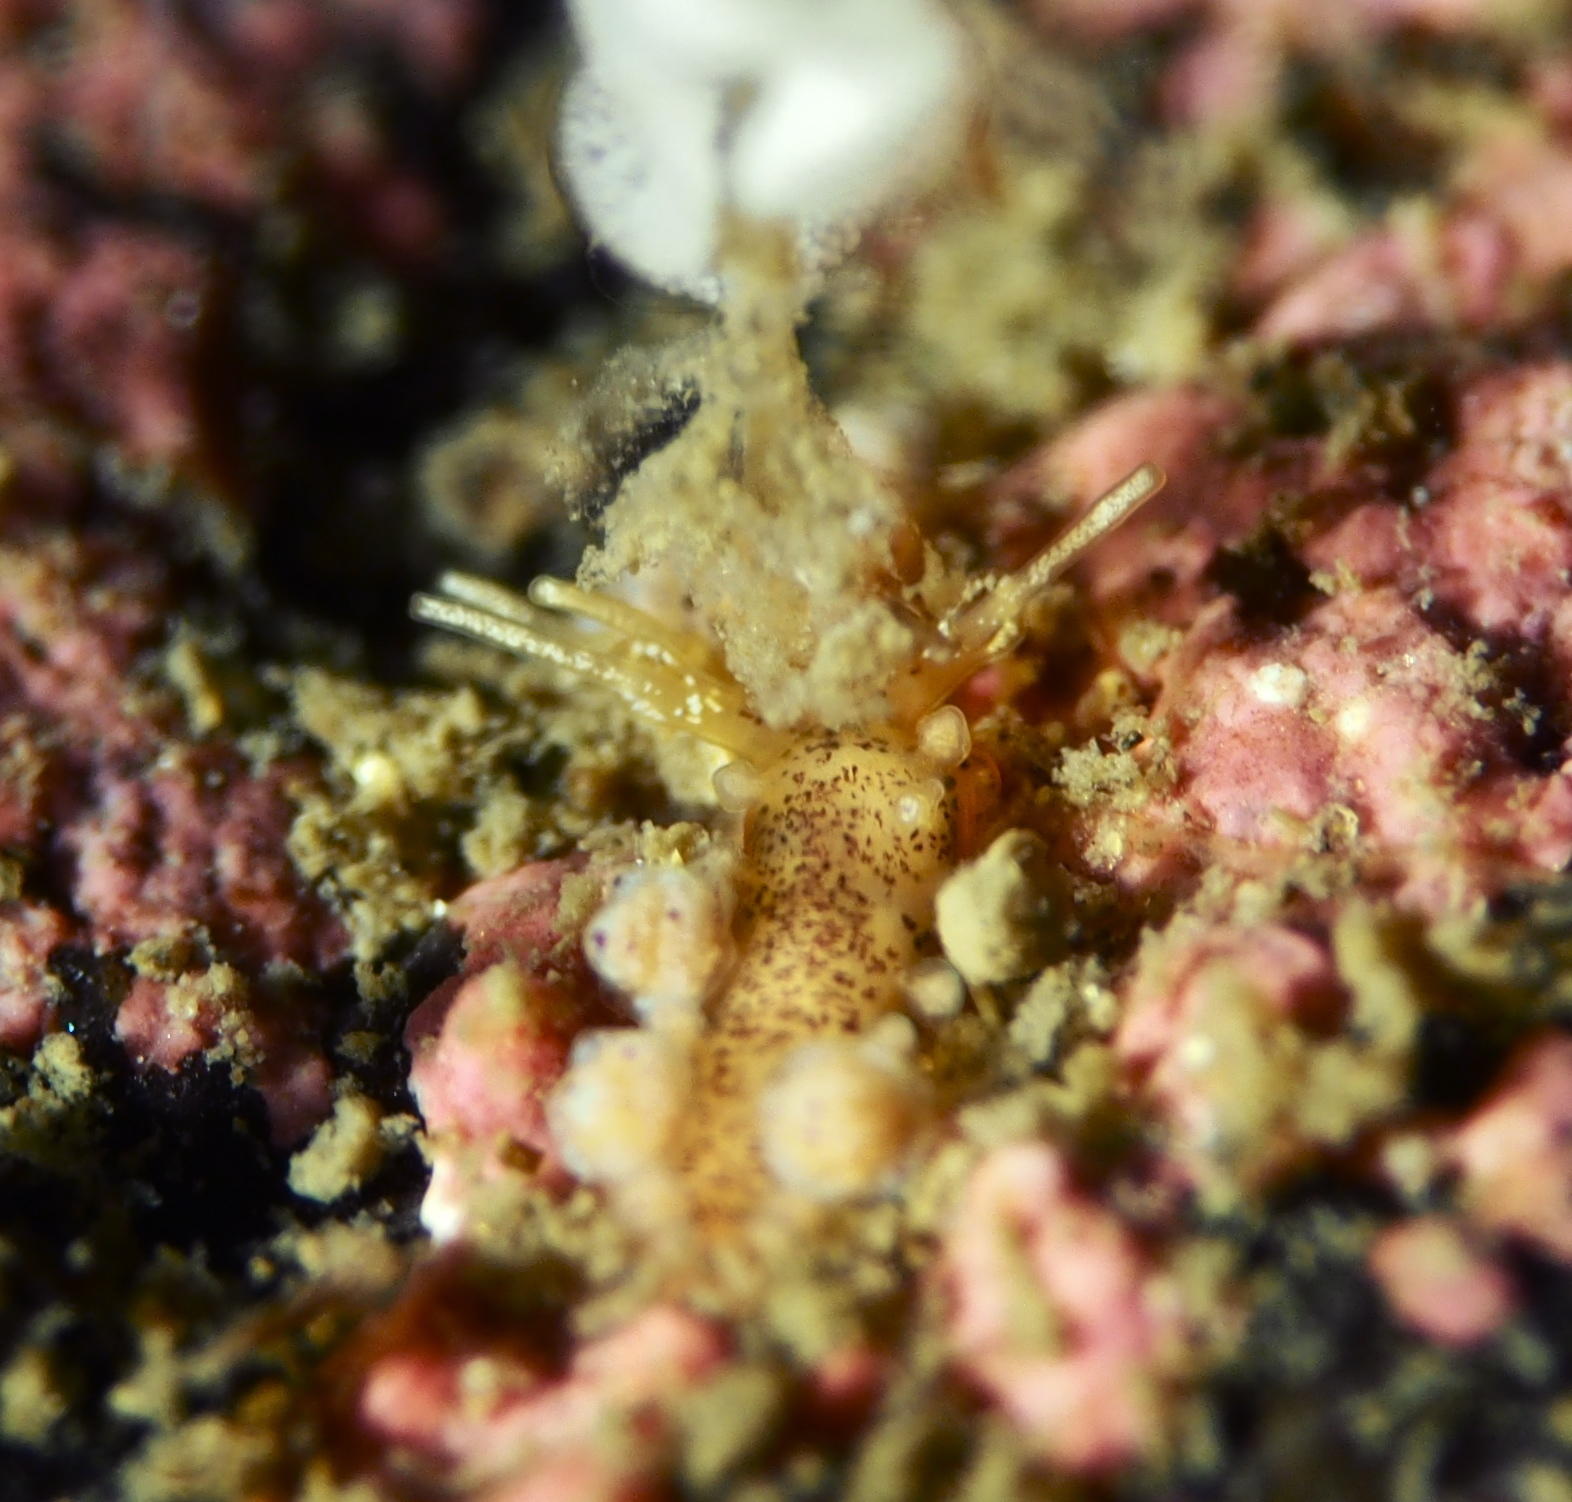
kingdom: Animalia
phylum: Mollusca
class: Gastropoda
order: Nudibranchia
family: Dotidae
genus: Doto
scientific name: Doto dunnei
